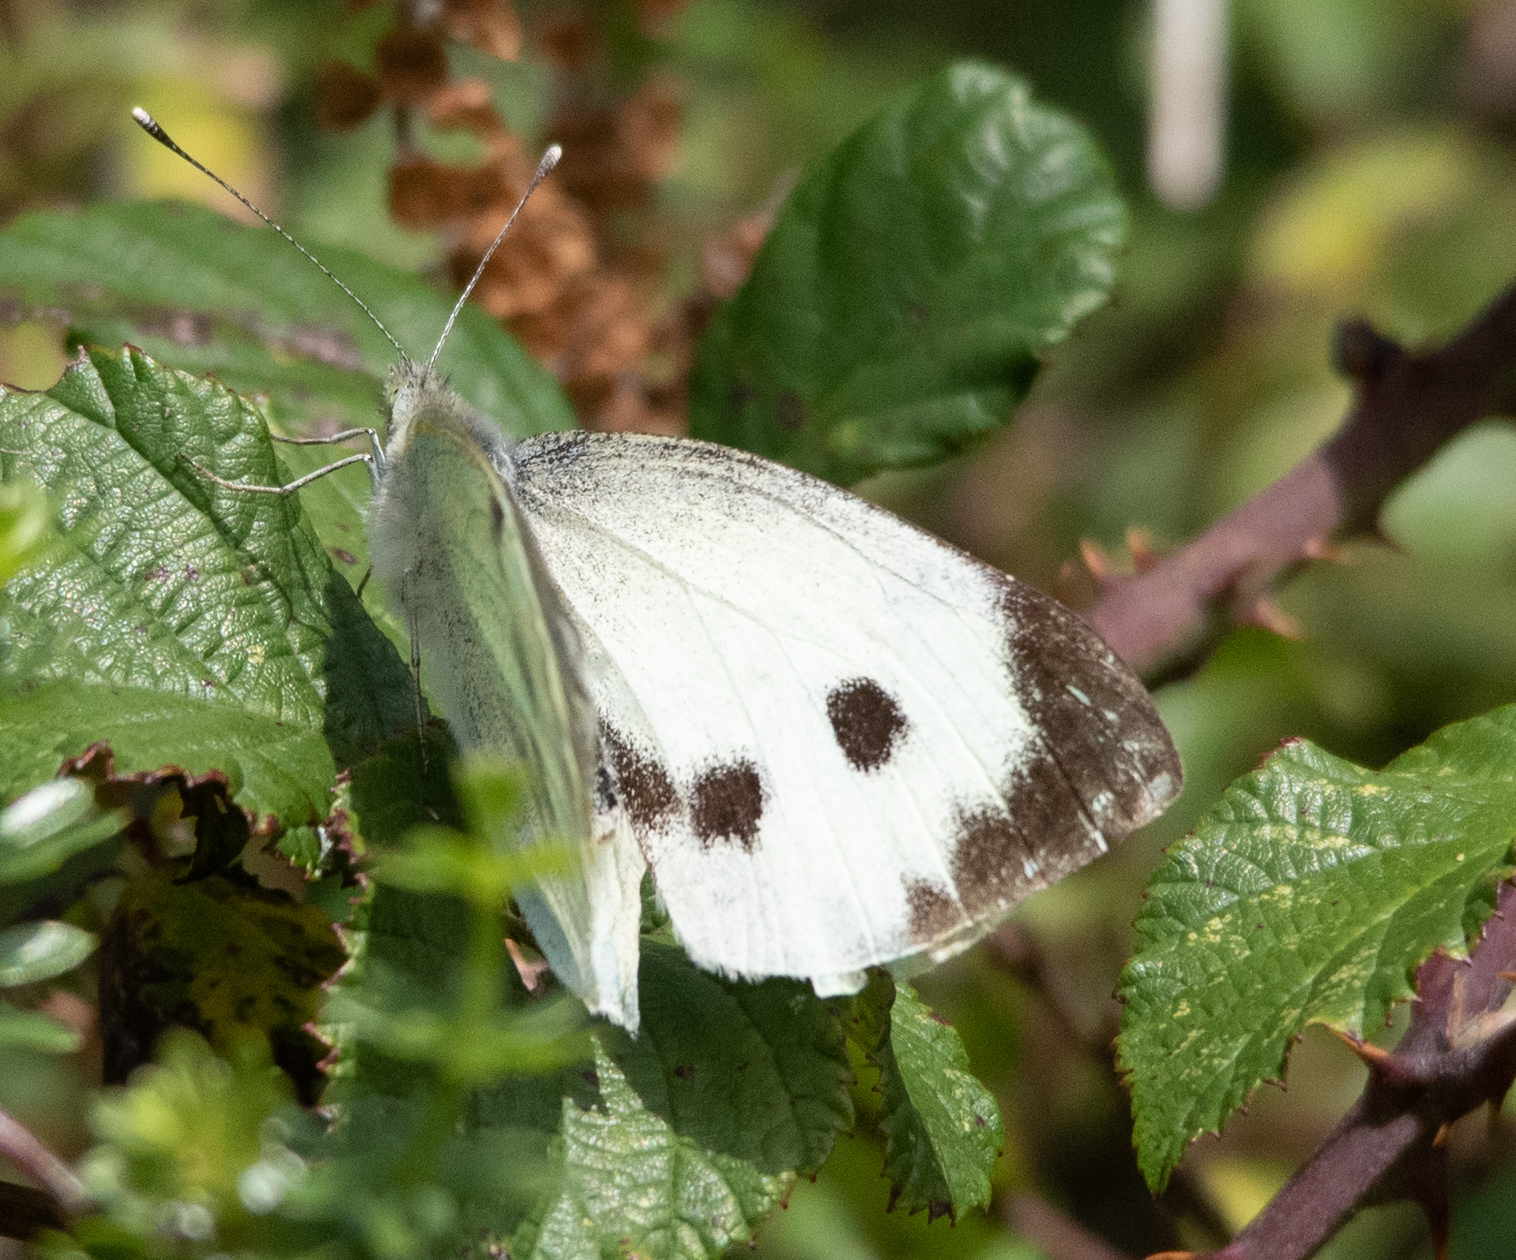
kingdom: Animalia
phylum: Arthropoda
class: Insecta
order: Lepidoptera
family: Pieridae
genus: Pieris
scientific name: Pieris brassicae
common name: Large white
